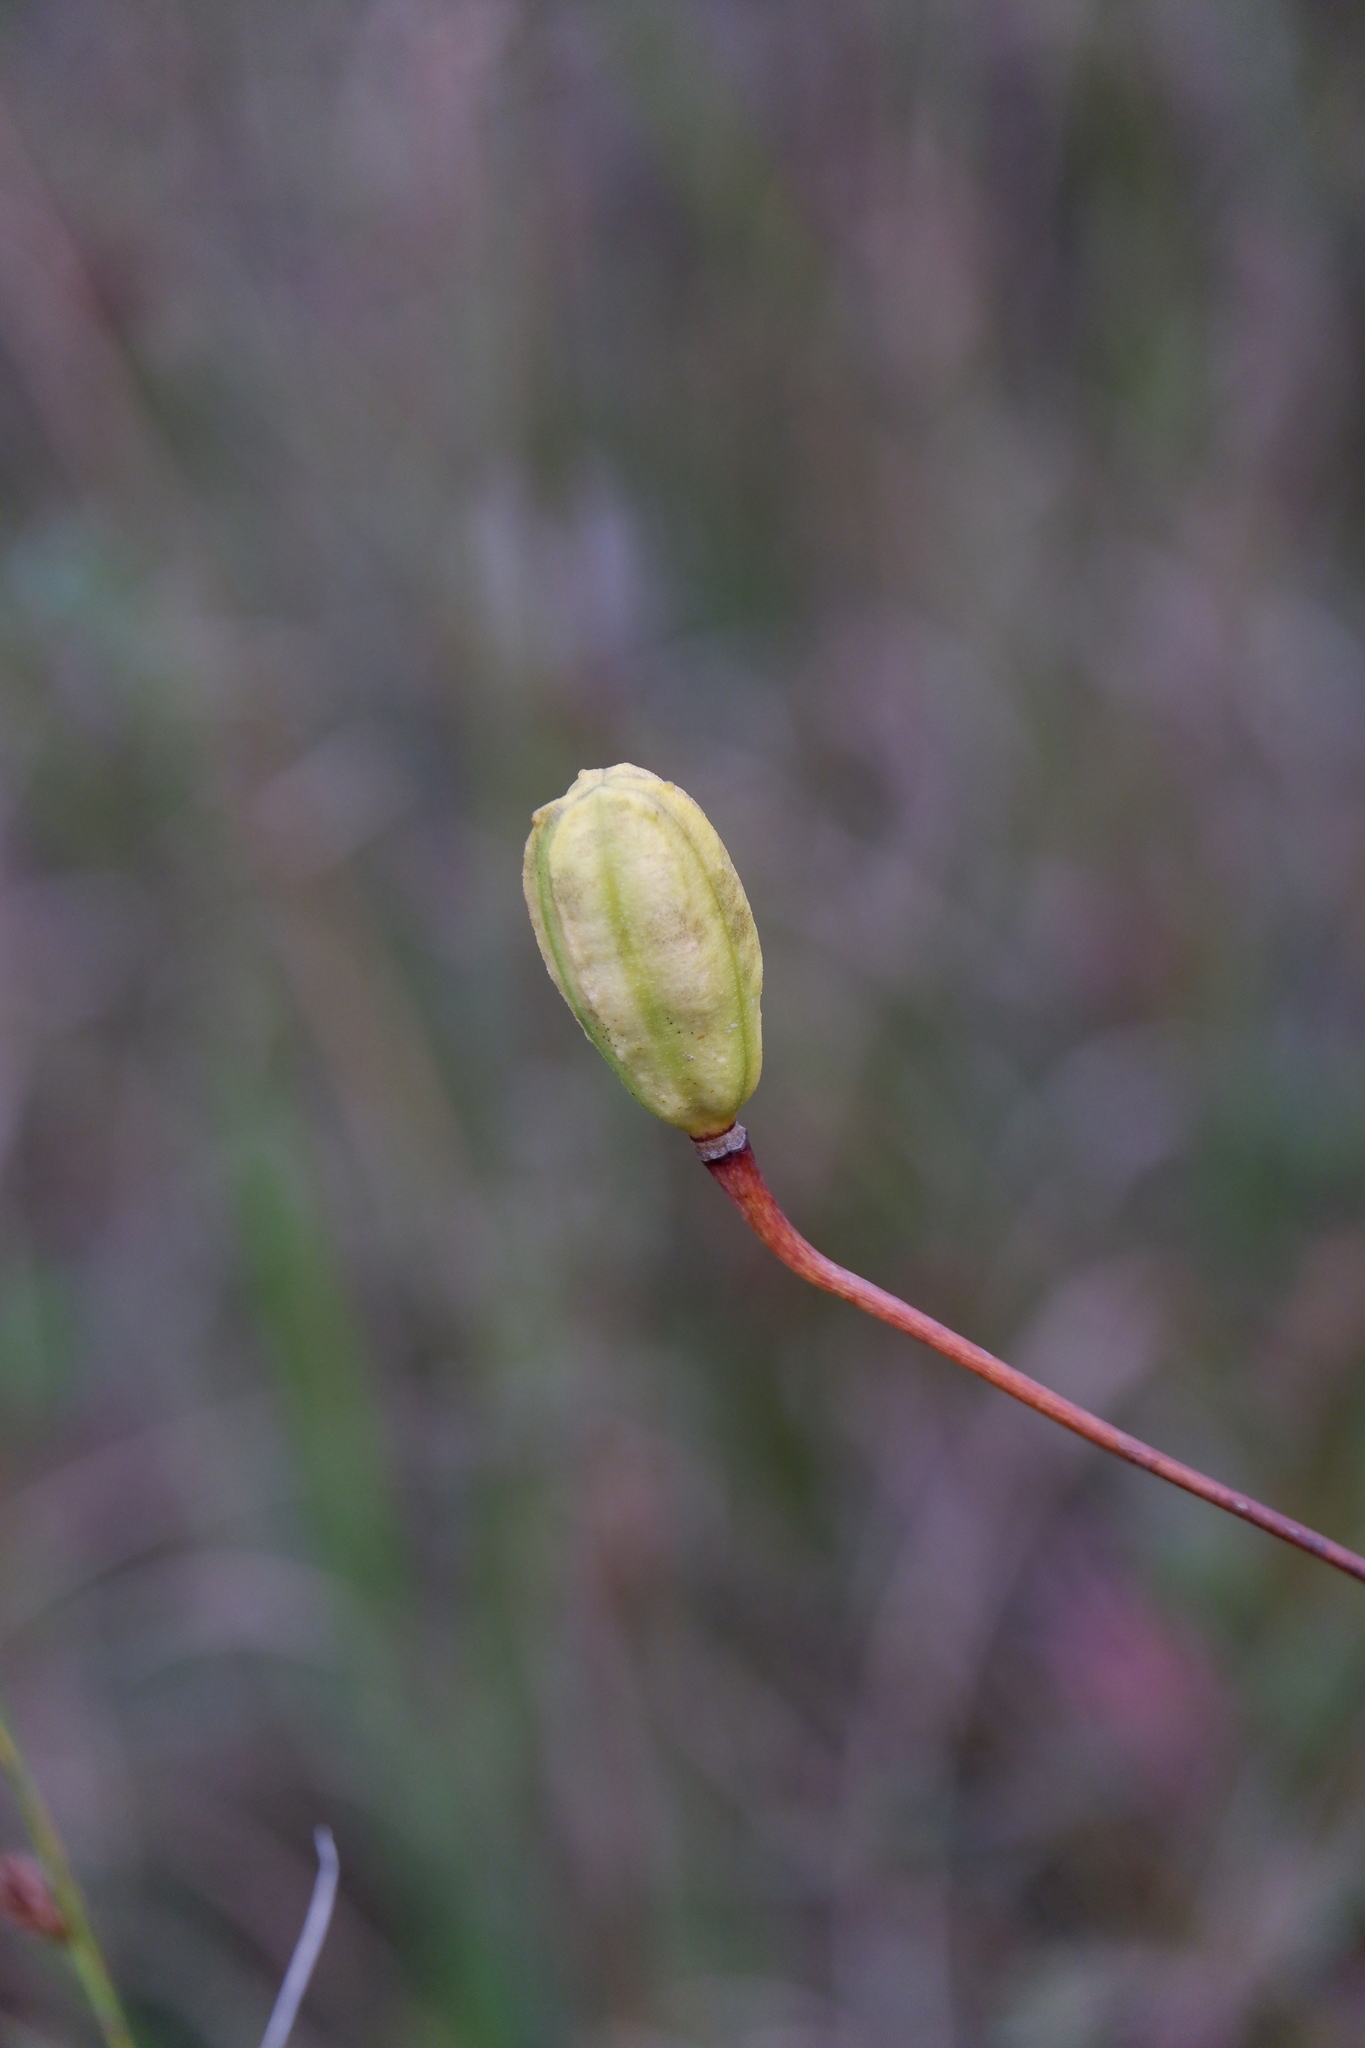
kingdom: Plantae
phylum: Tracheophyta
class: Liliopsida
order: Liliales
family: Liliaceae
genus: Lilium
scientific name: Lilium superbum
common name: American turk's-cap lily
